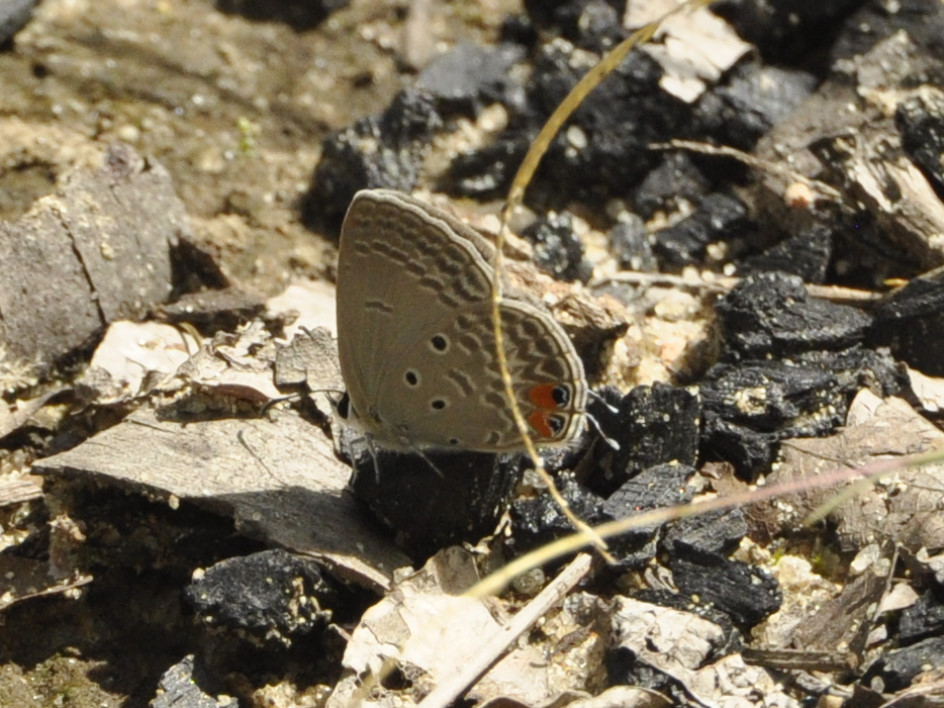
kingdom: Animalia
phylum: Arthropoda
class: Insecta
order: Lepidoptera
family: Lycaenidae
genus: Euchrysops
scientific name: Euchrysops osiris
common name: African blue
